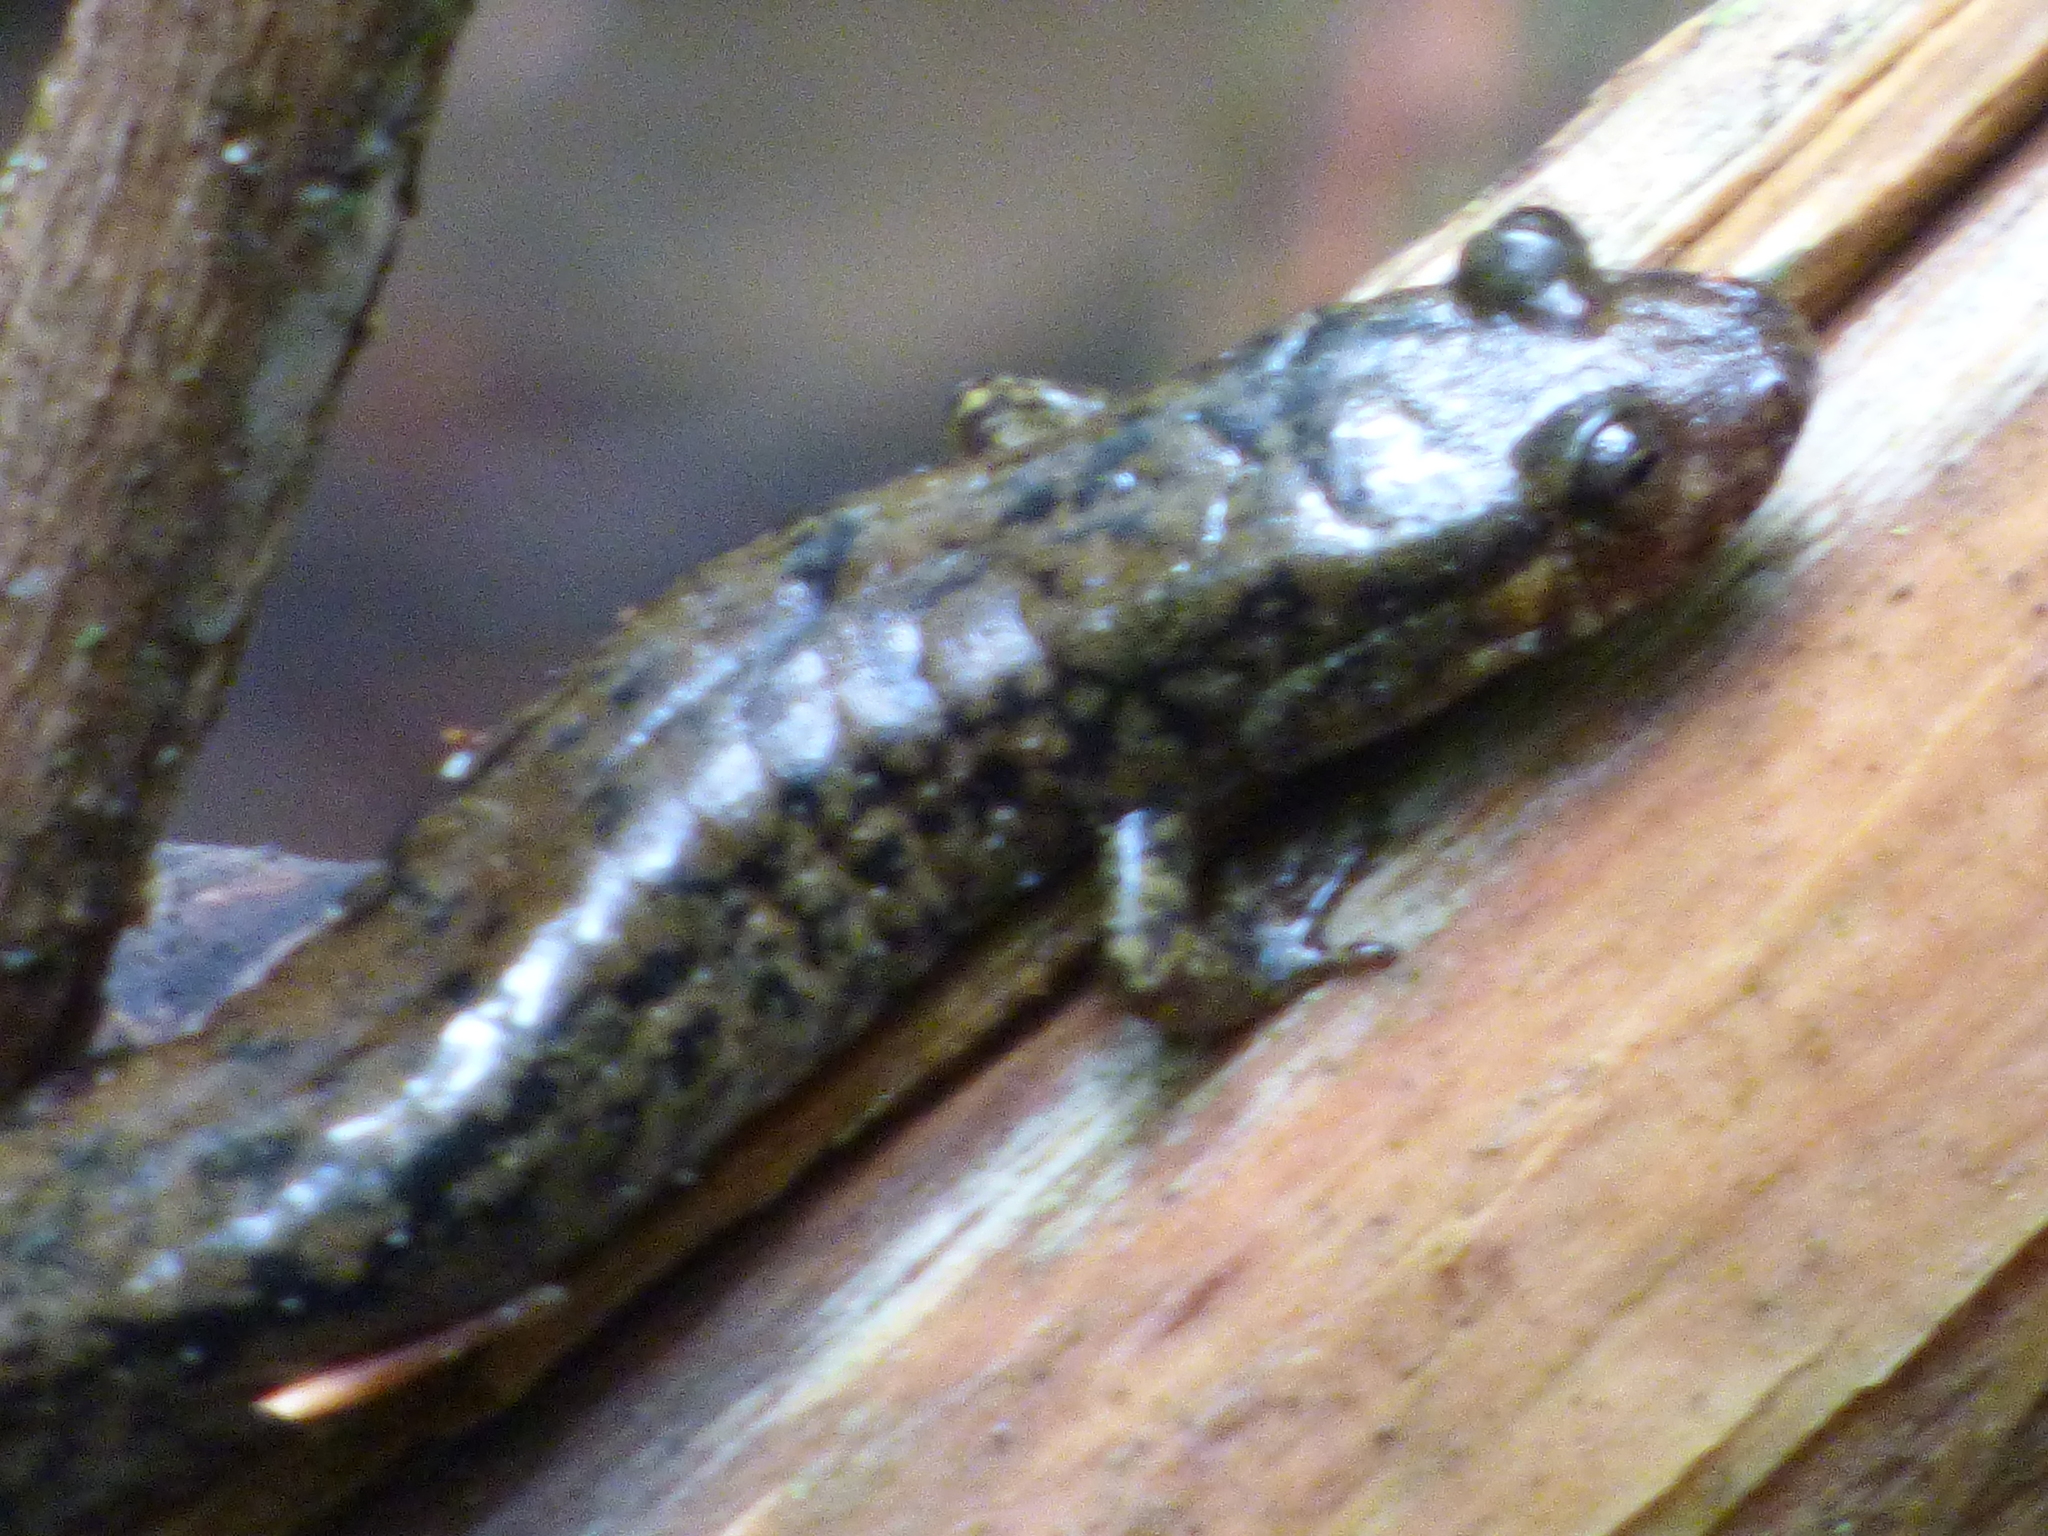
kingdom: Animalia
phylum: Chordata
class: Amphibia
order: Caudata
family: Plethodontidae
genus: Desmognathus
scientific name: Desmognathus
